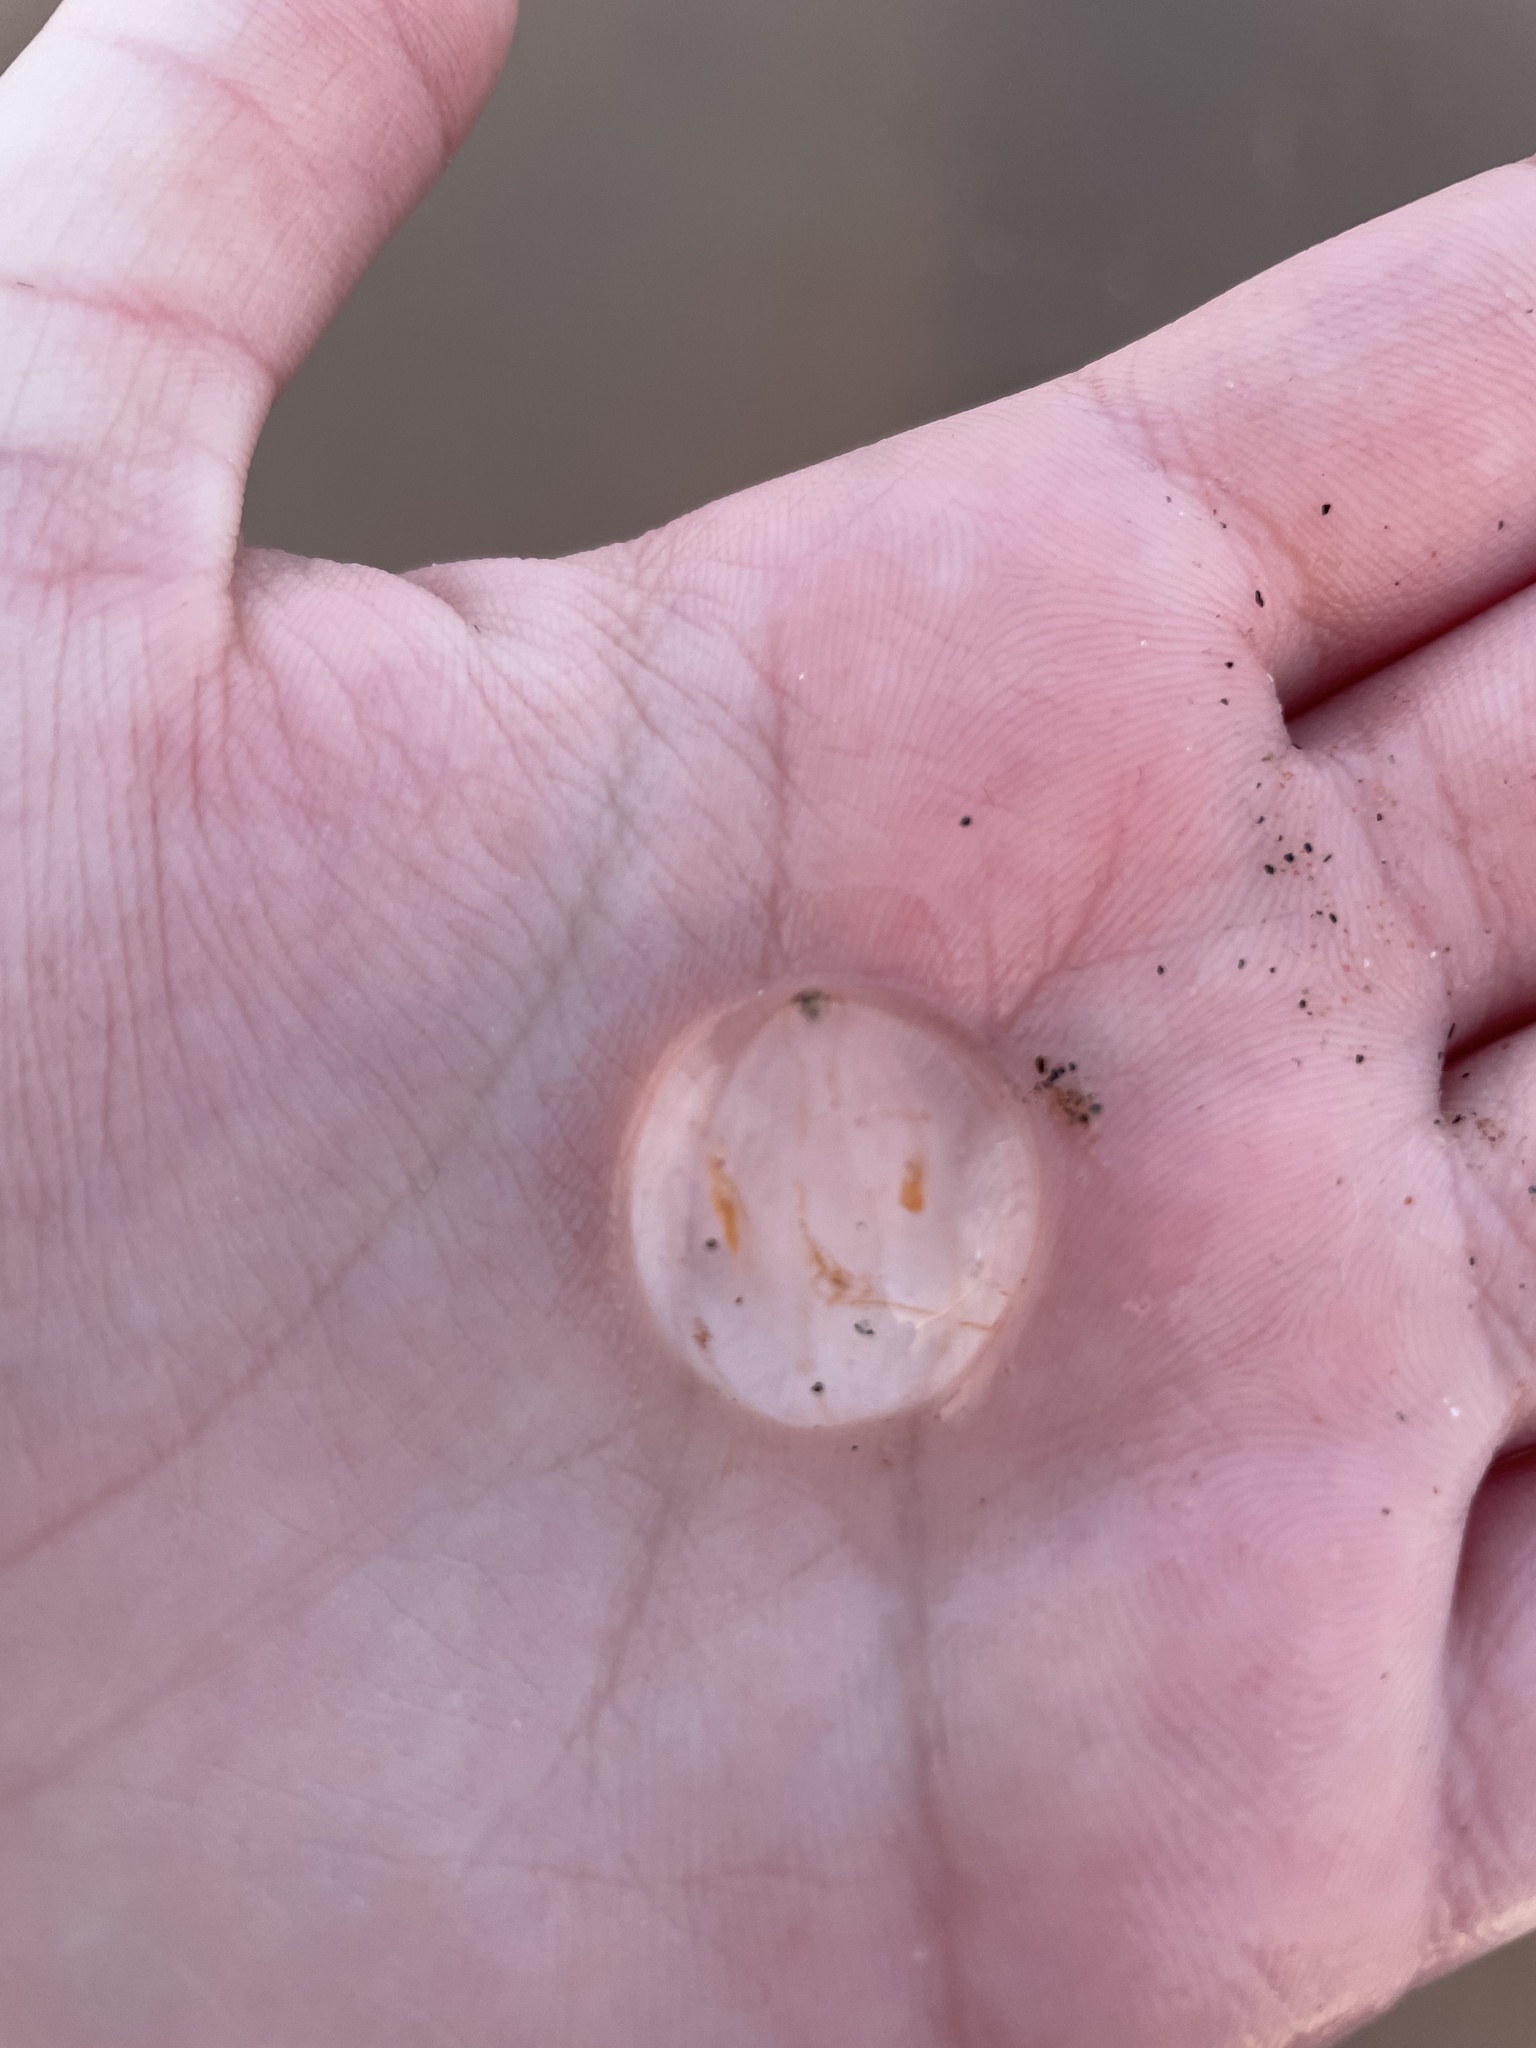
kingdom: Animalia
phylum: Ctenophora
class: Tentaculata
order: Cydippida
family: Pleurobrachiidae
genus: Pleurobrachia
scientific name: Pleurobrachia pileus
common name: Sea gooseberry
